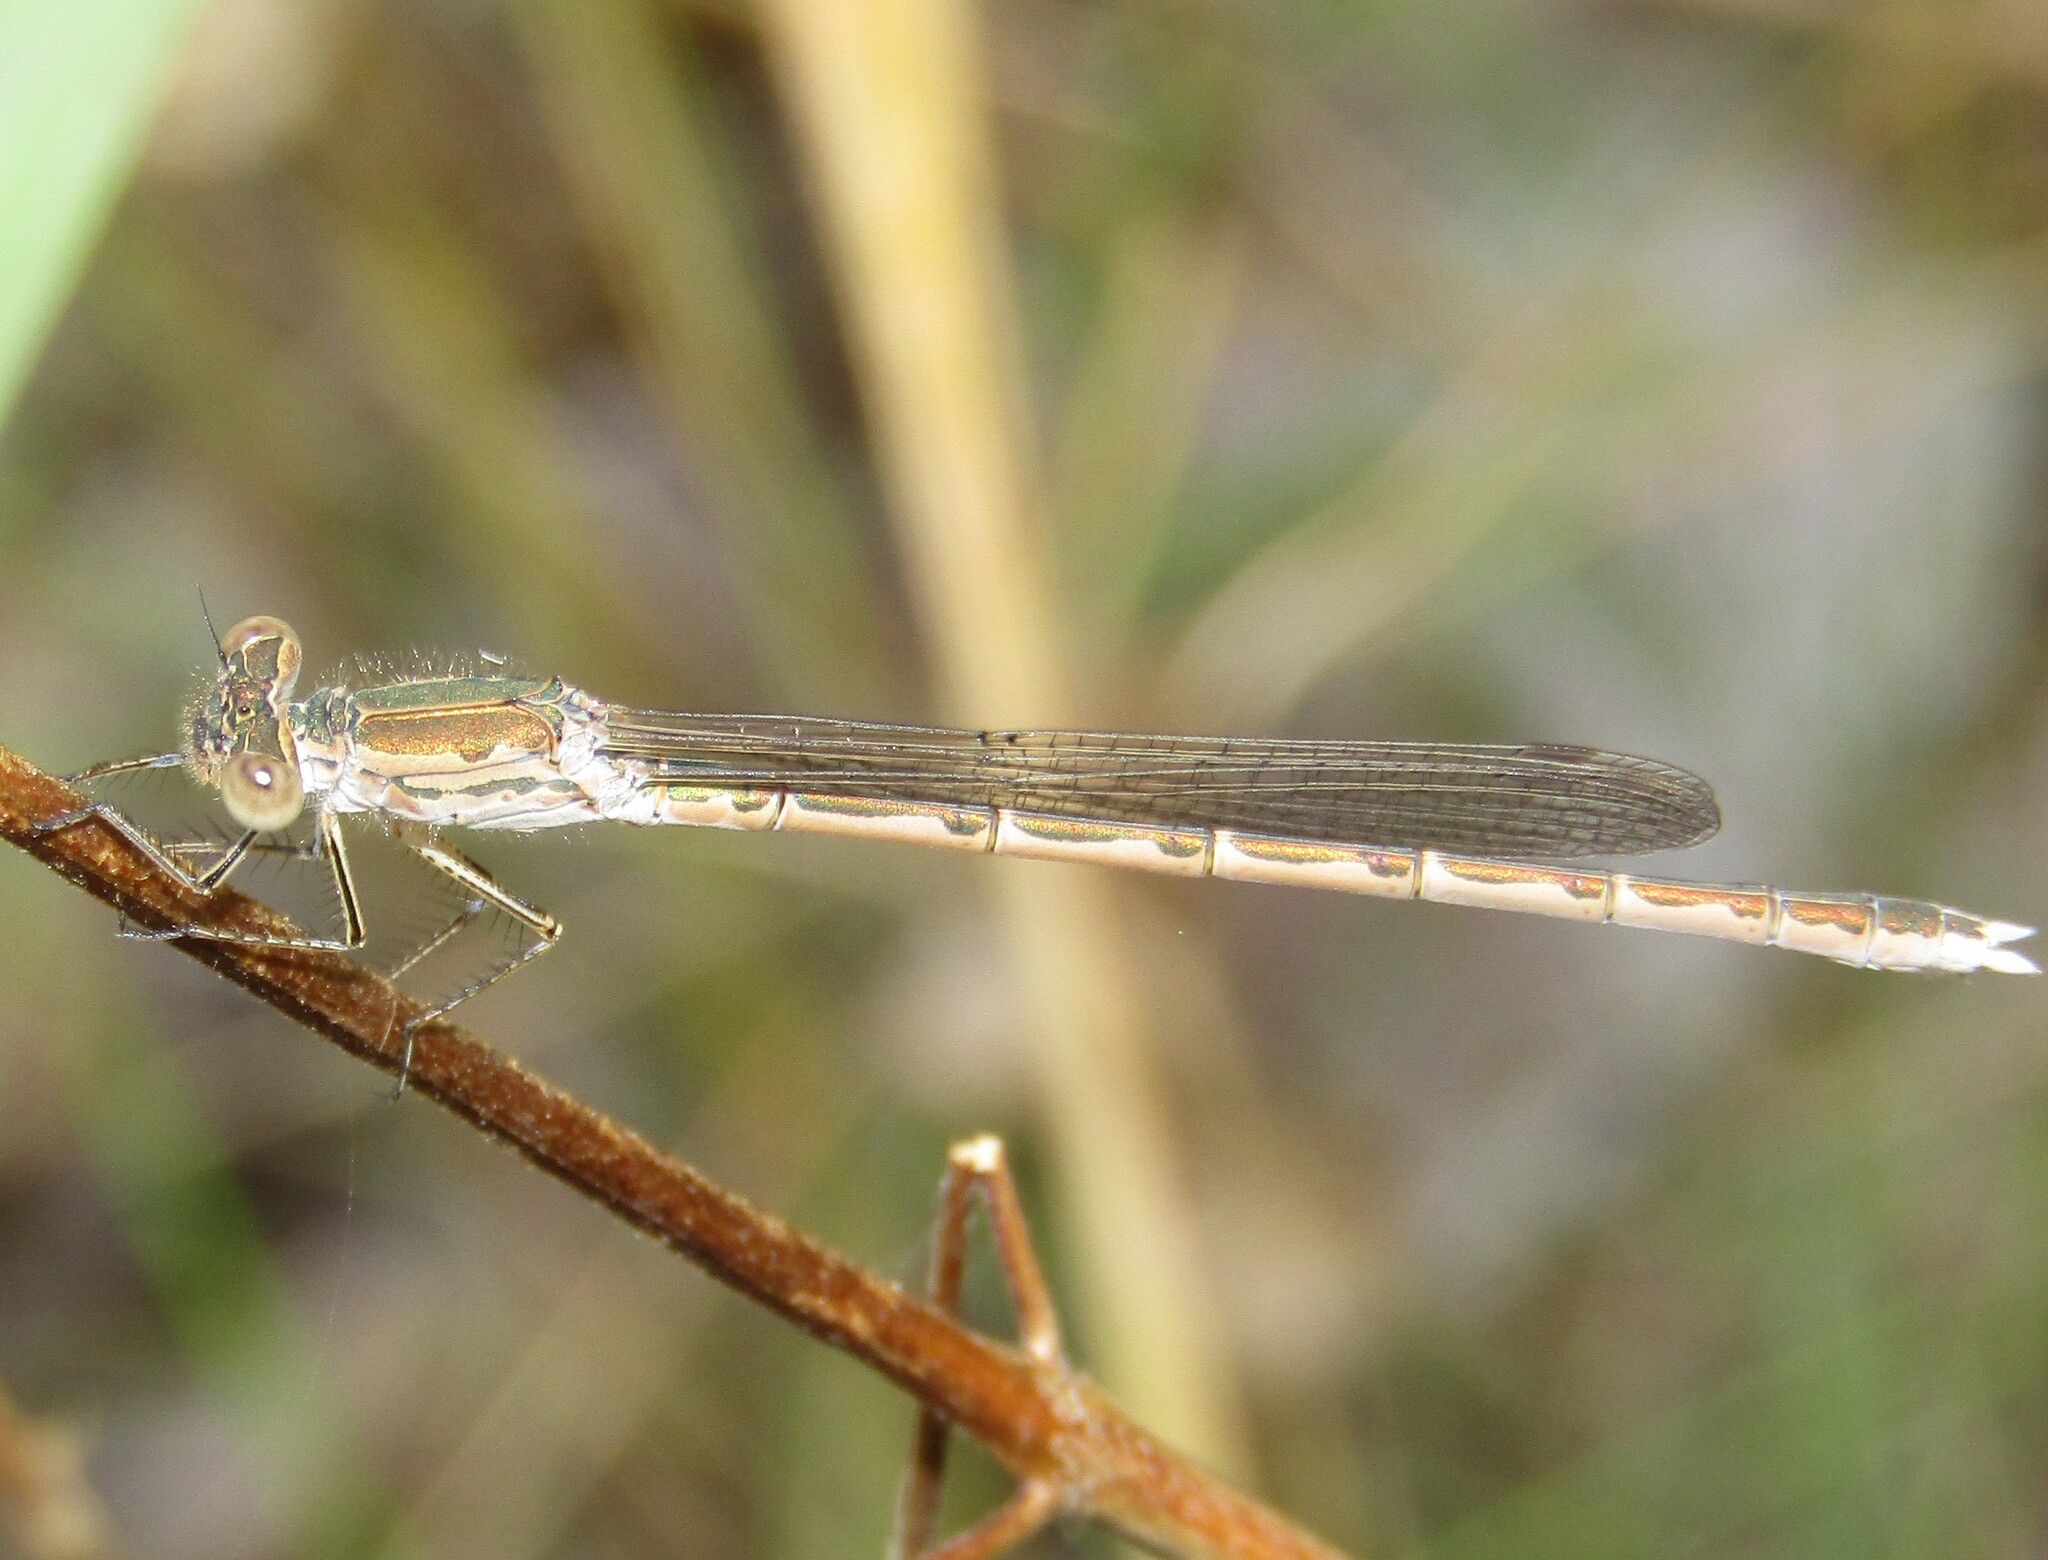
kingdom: Animalia
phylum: Arthropoda
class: Insecta
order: Odonata
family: Lestidae
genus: Sympecma
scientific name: Sympecma paedisca
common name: Siberian winter damsel
